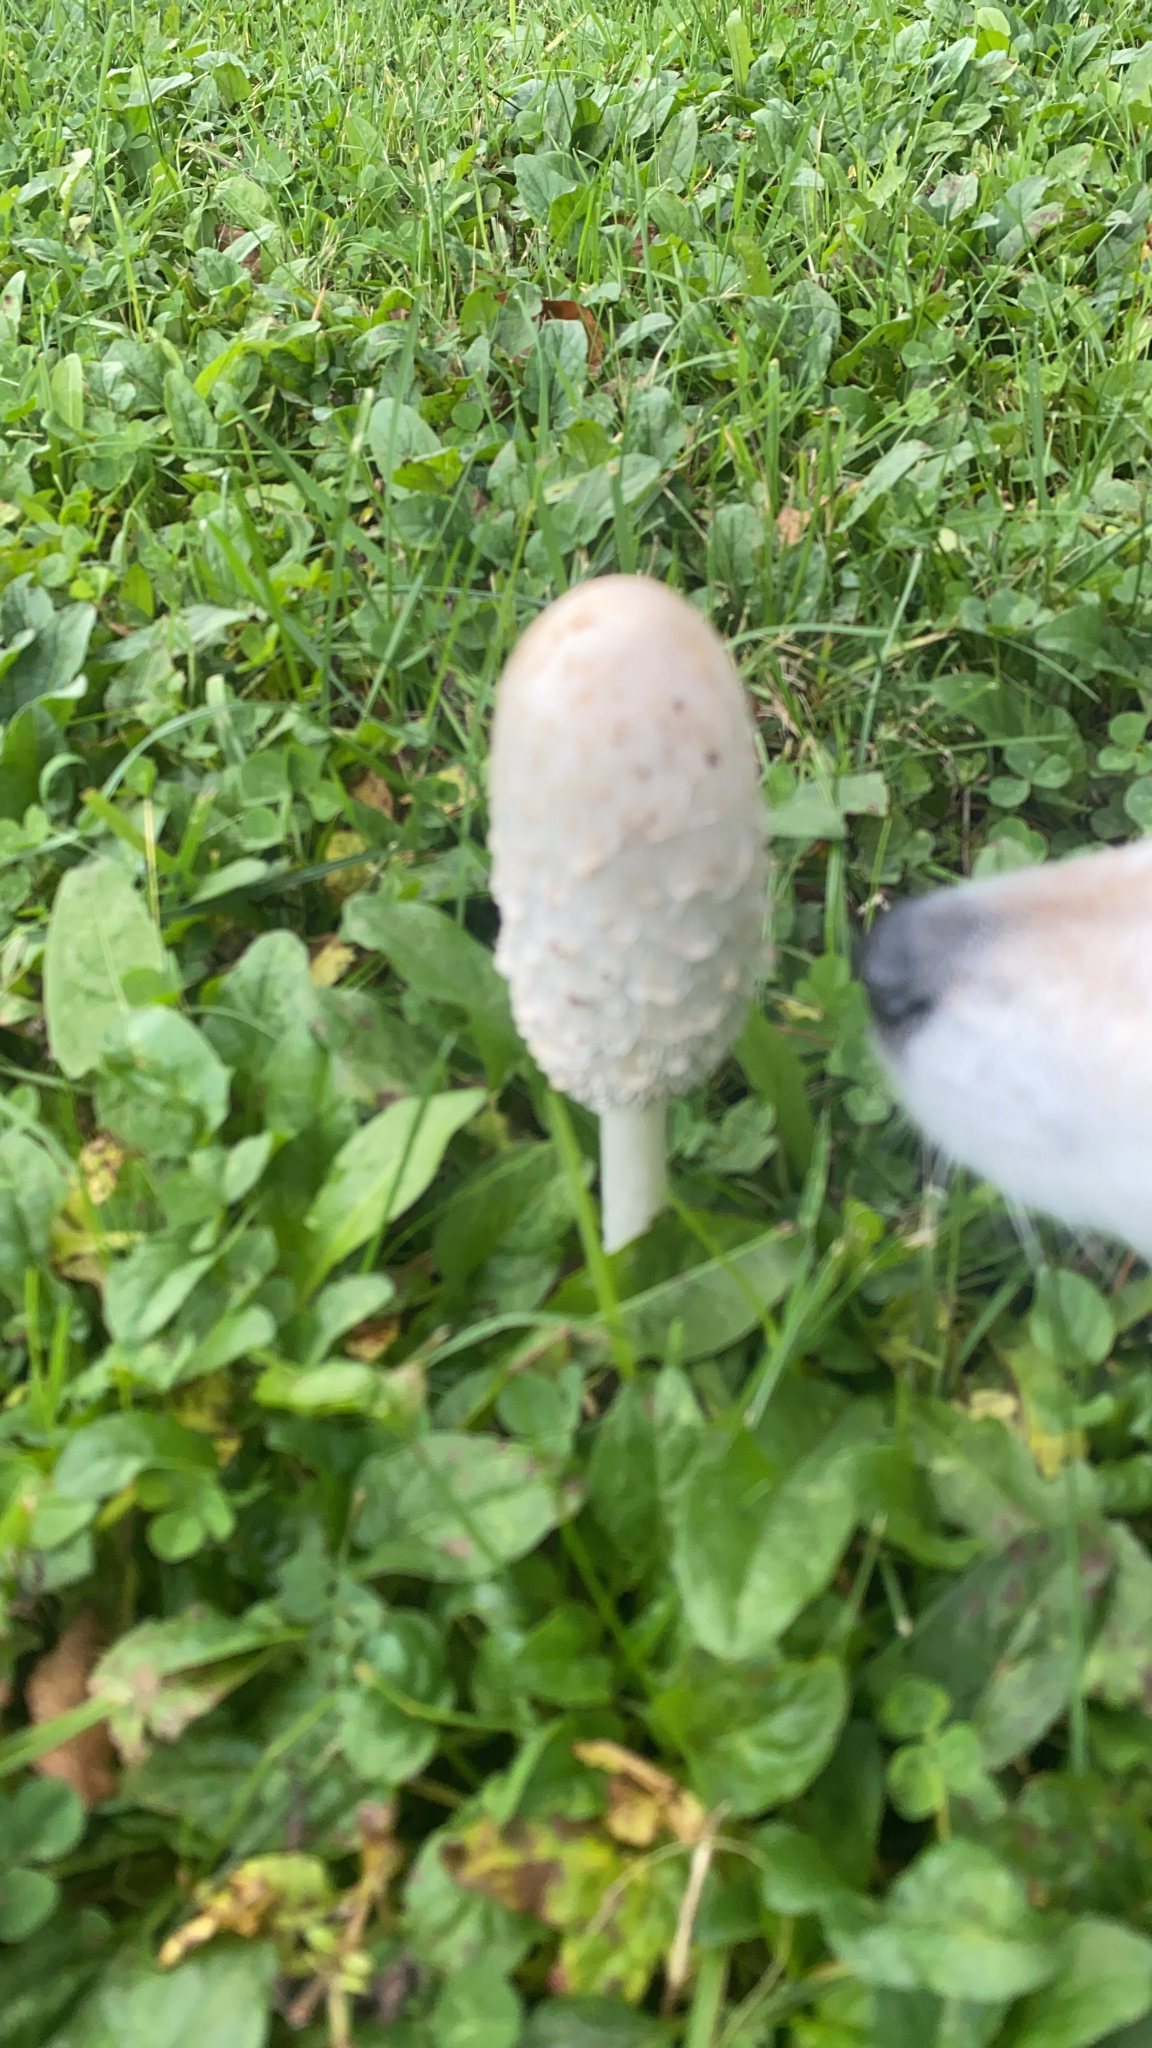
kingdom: Fungi
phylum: Basidiomycota
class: Agaricomycetes
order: Agaricales
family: Agaricaceae
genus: Coprinus
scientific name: Coprinus comatus
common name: Lawyer's wig
